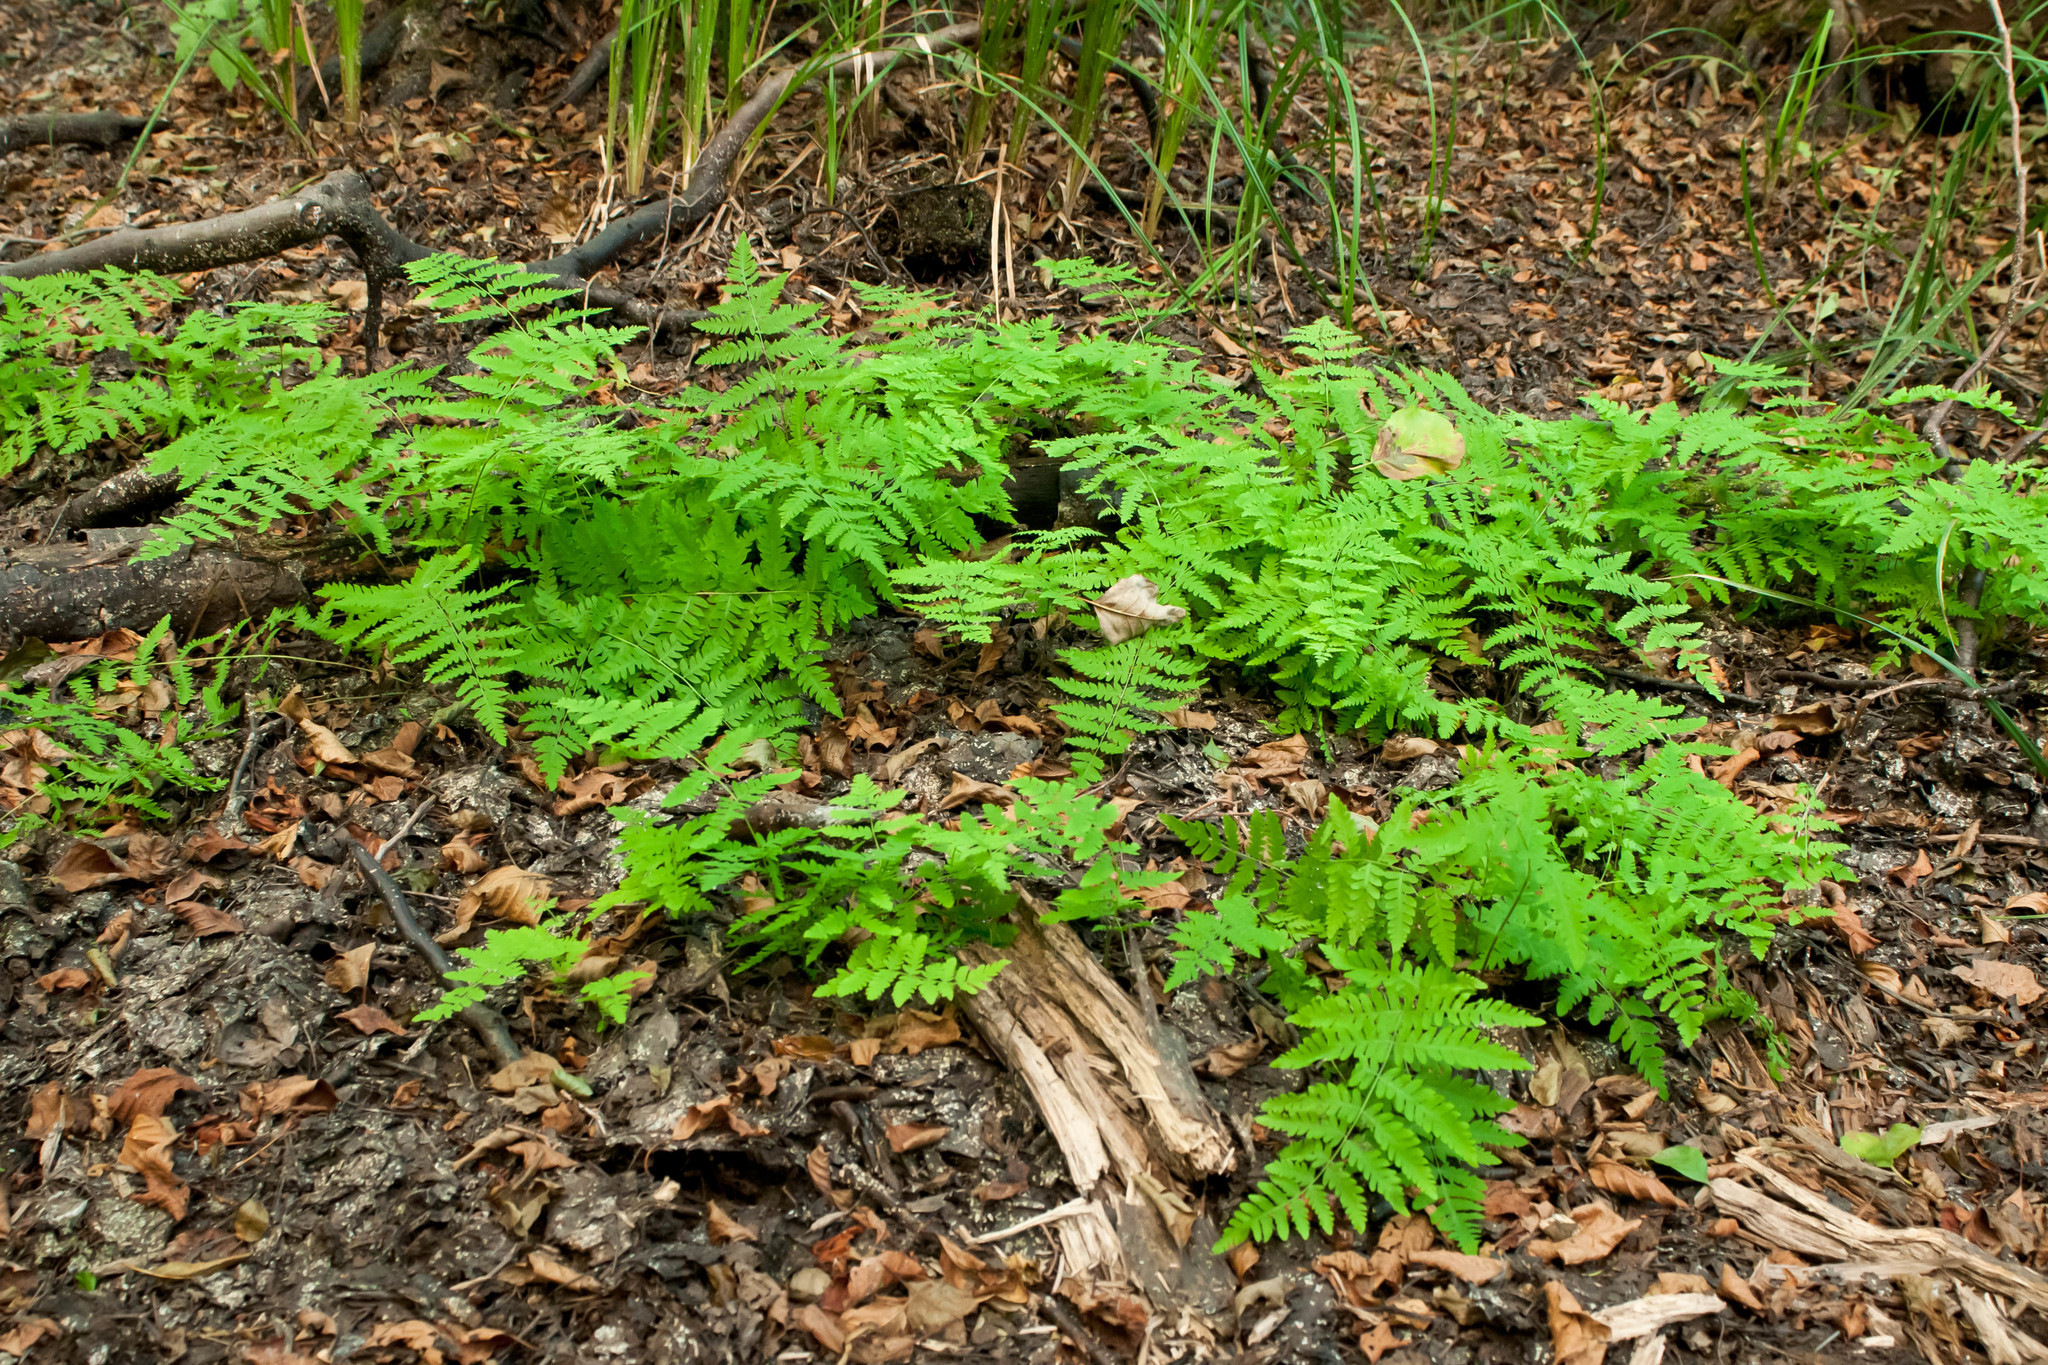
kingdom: Plantae
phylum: Tracheophyta
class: Polypodiopsida
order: Polypodiales
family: Thelypteridaceae
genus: Thelypteris
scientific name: Thelypteris palustris
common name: Marsh fern
